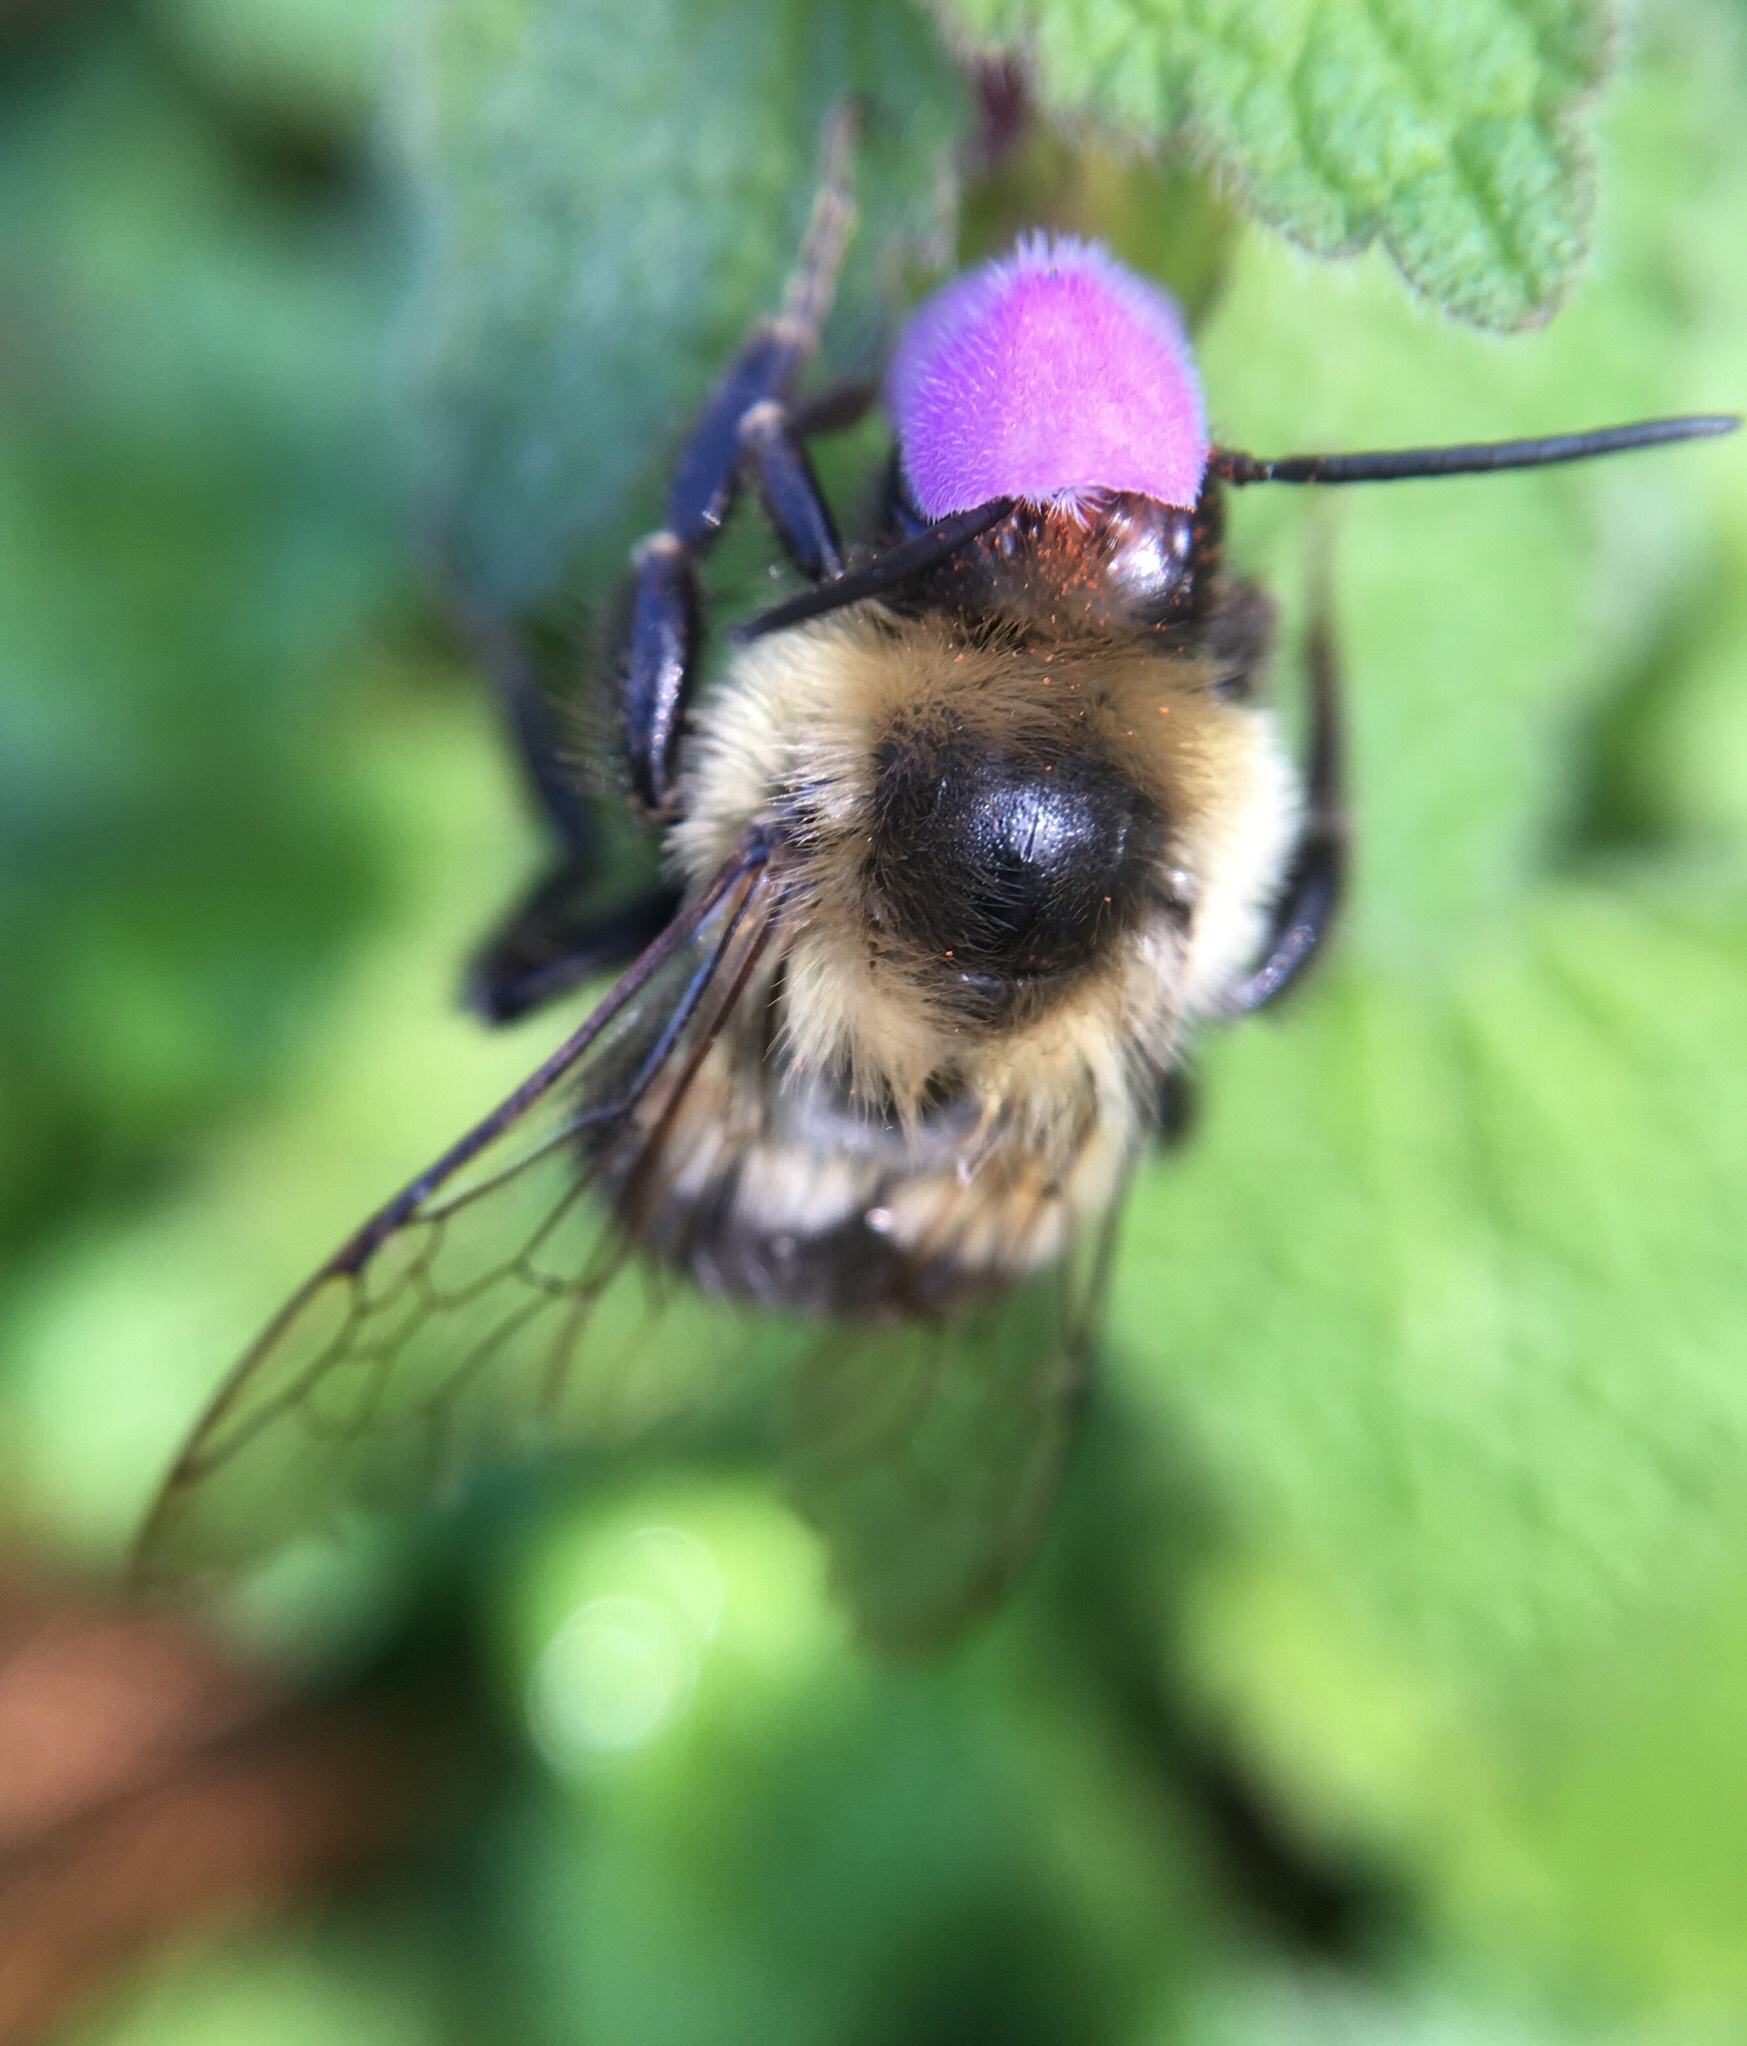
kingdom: Animalia
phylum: Arthropoda
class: Insecta
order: Hymenoptera
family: Apidae
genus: Bombus
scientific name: Bombus impatiens
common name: Common eastern bumble bee
